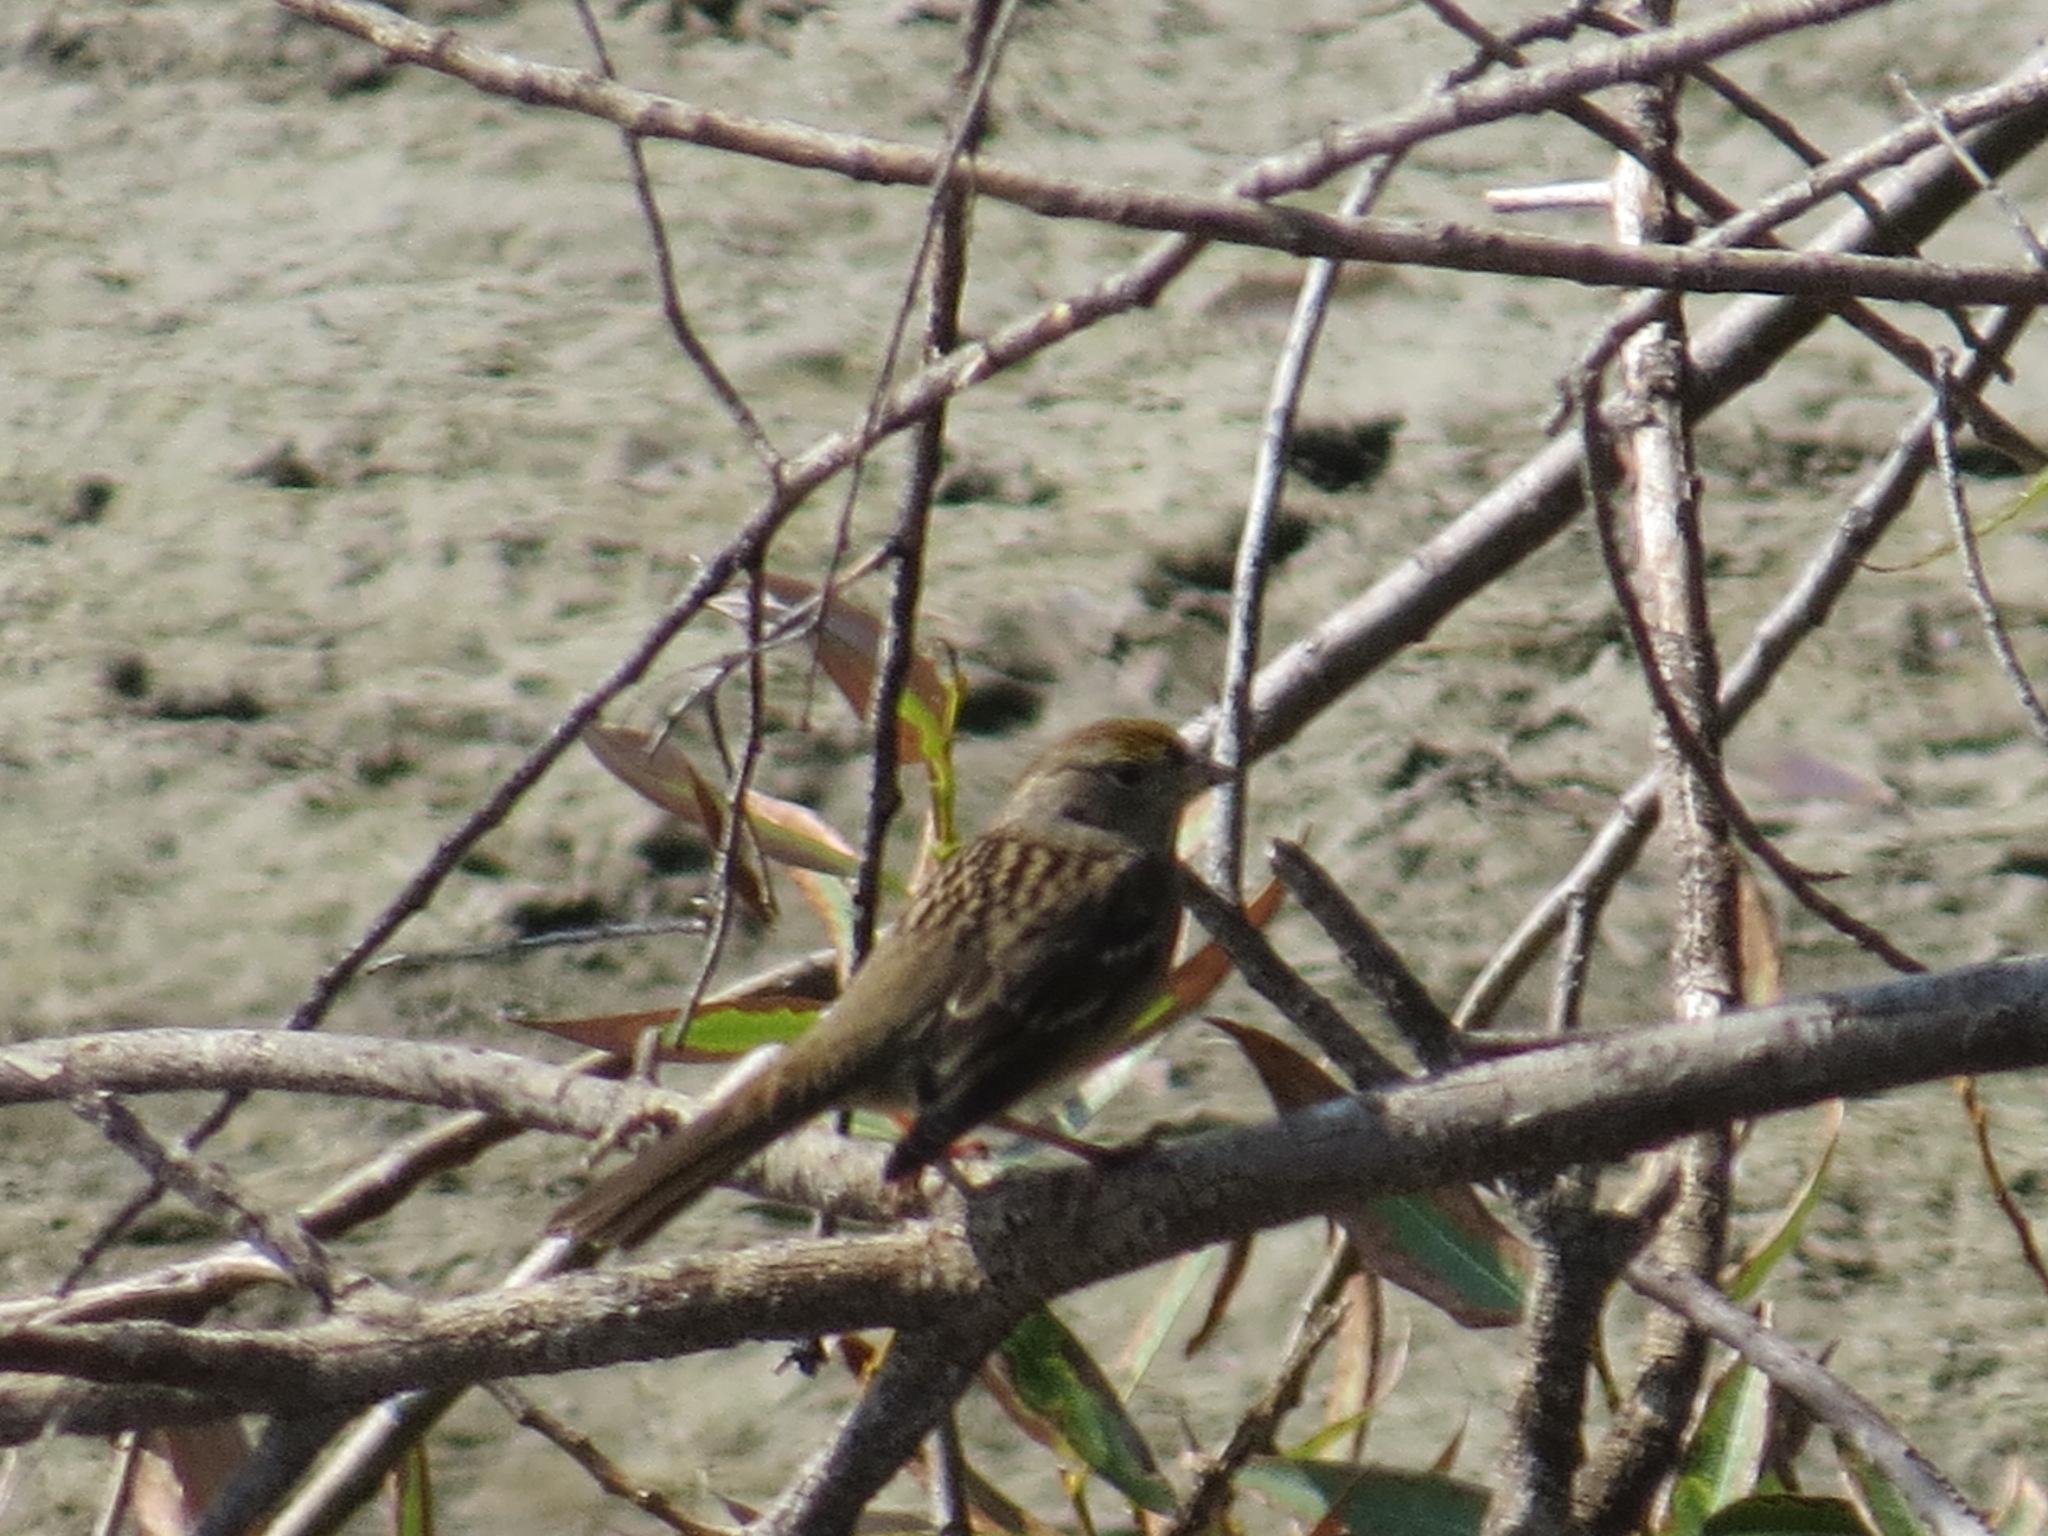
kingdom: Animalia
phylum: Chordata
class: Aves
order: Passeriformes
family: Passerellidae
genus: Zonotrichia
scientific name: Zonotrichia atricapilla
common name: Golden-crowned sparrow
